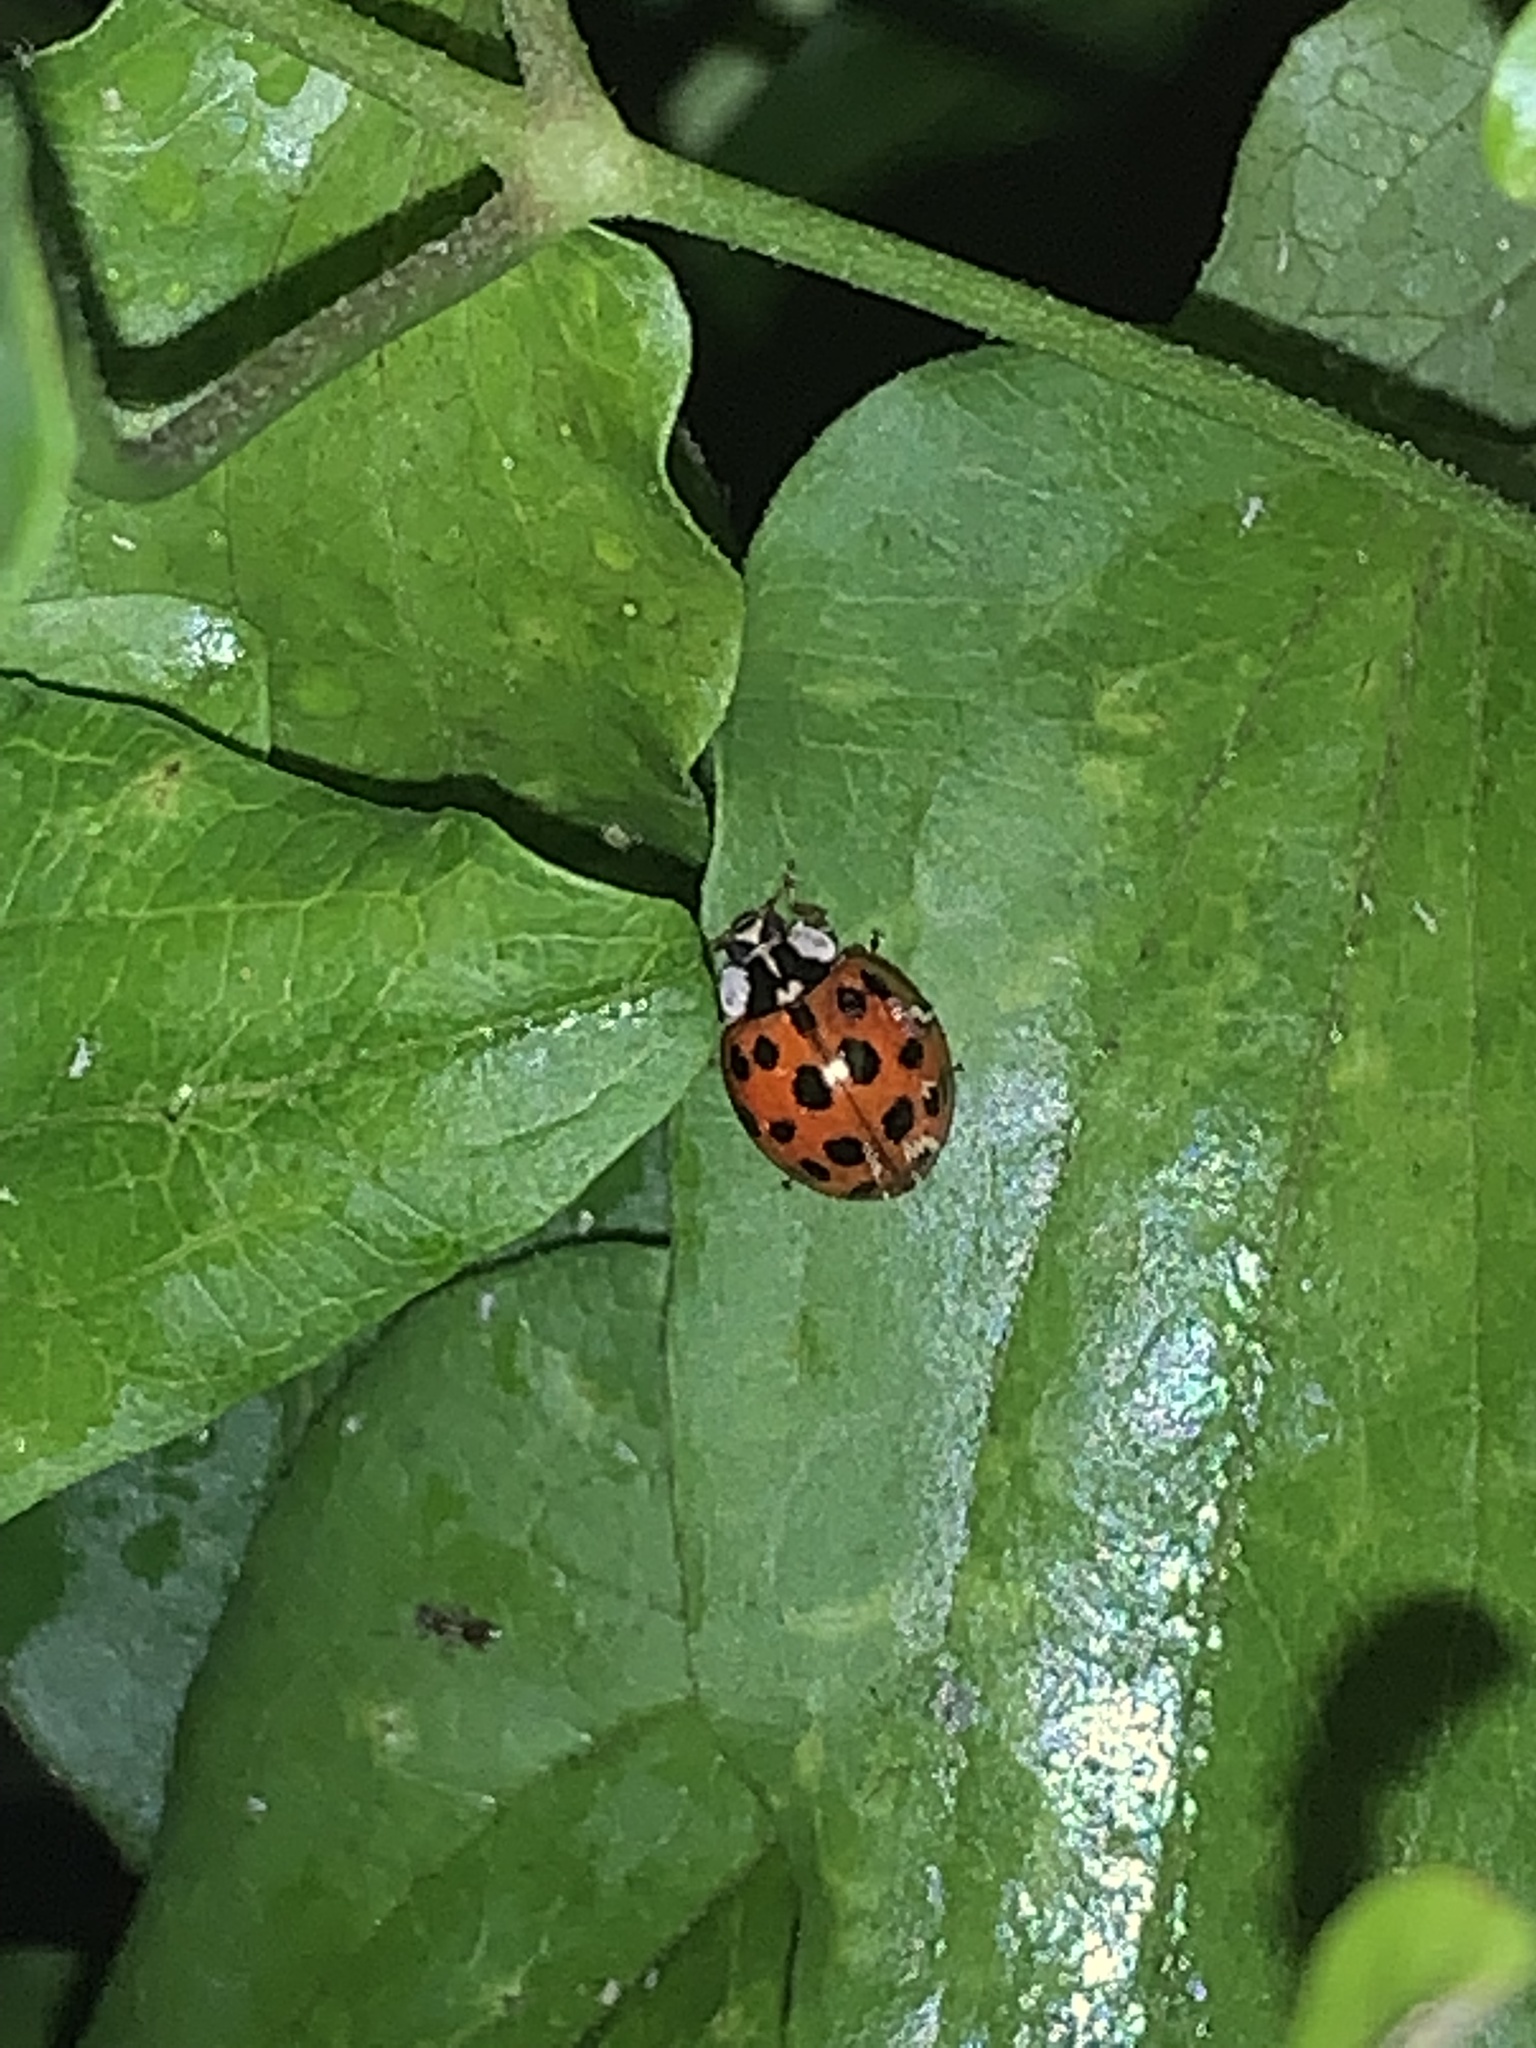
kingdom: Animalia
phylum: Arthropoda
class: Insecta
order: Coleoptera
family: Coccinellidae
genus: Harmonia
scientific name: Harmonia axyridis
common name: Harlequin ladybird
